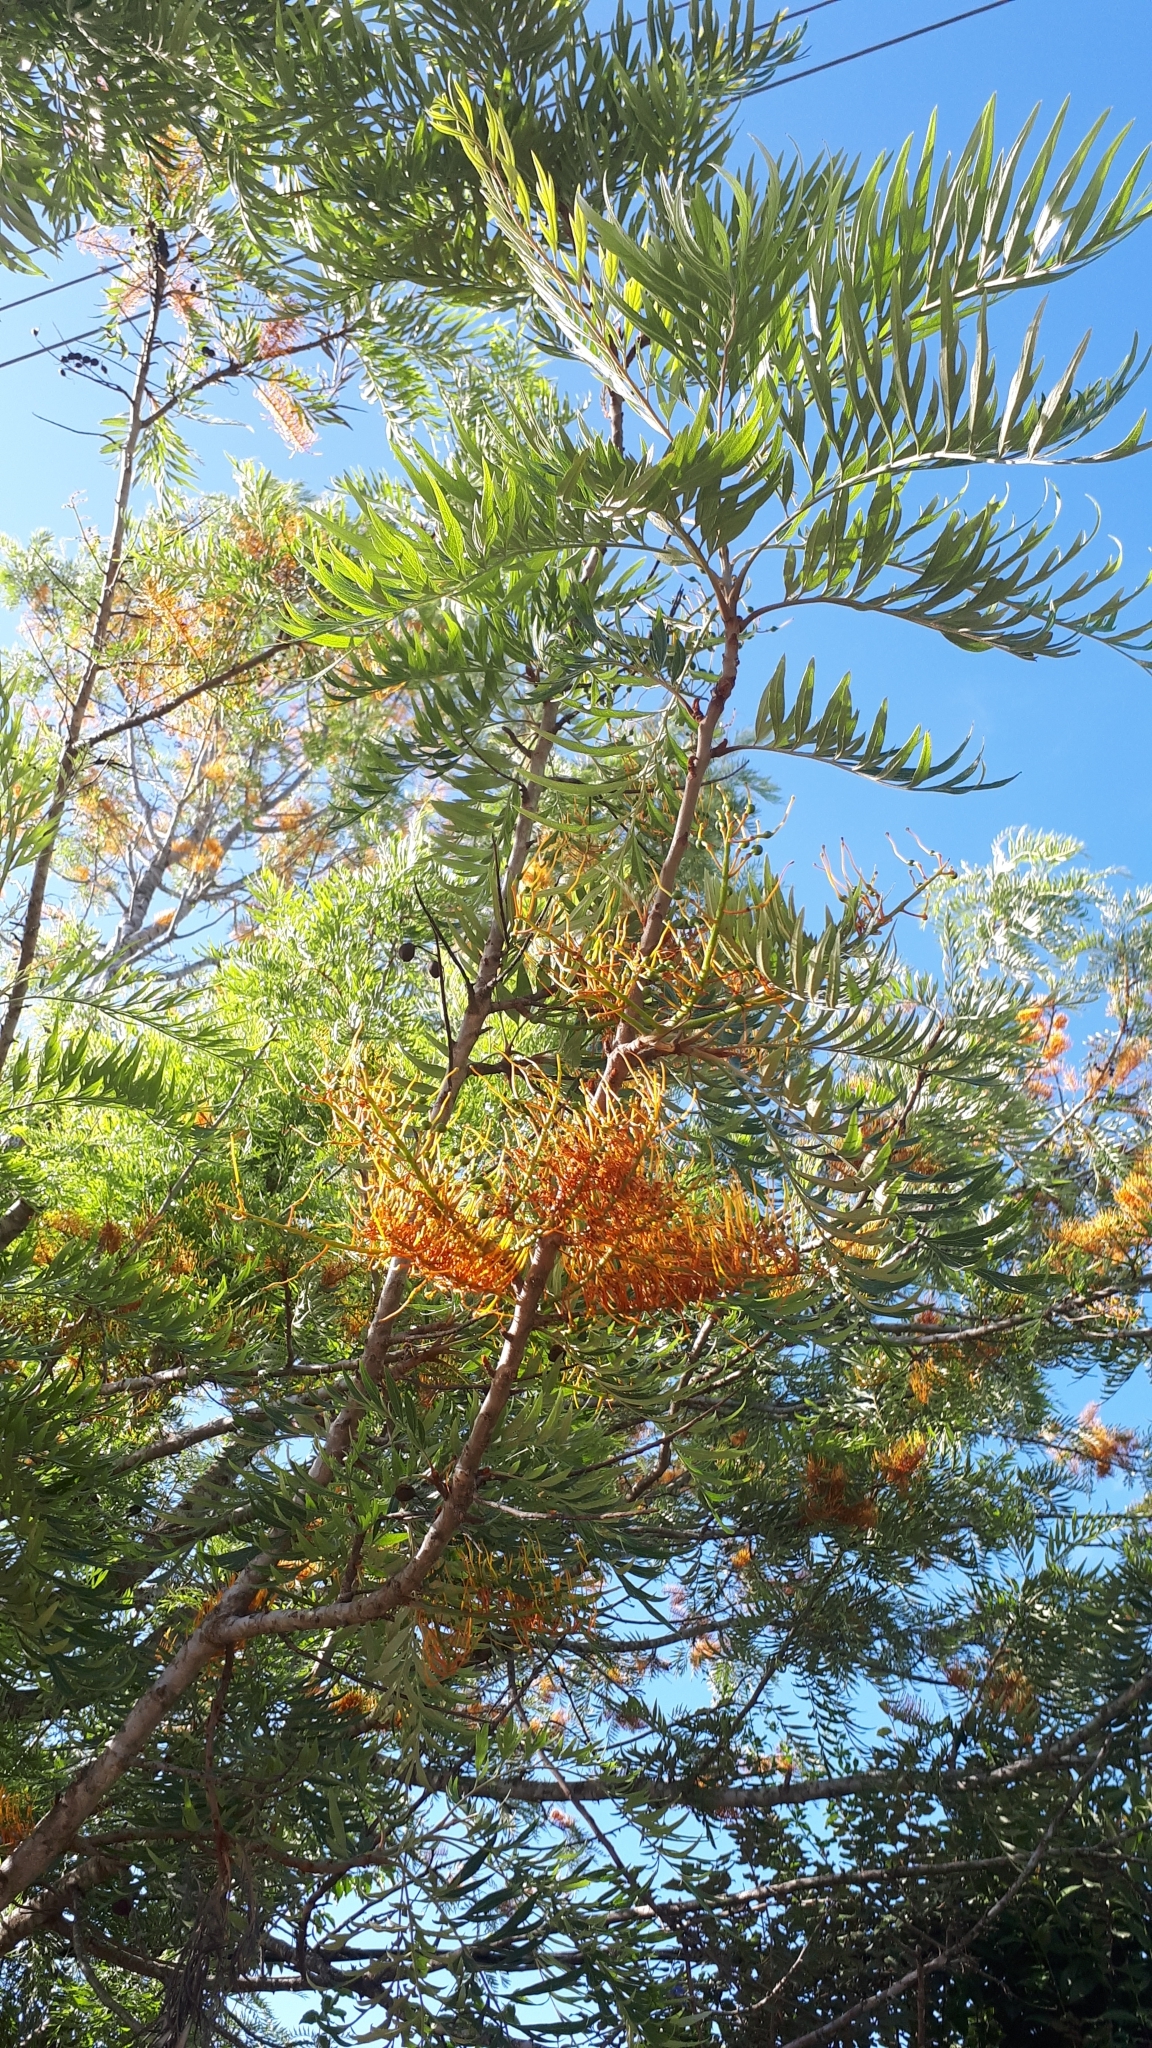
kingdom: Plantae
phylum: Tracheophyta
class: Magnoliopsida
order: Proteales
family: Proteaceae
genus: Grevillea
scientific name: Grevillea robusta
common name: Silkoak
